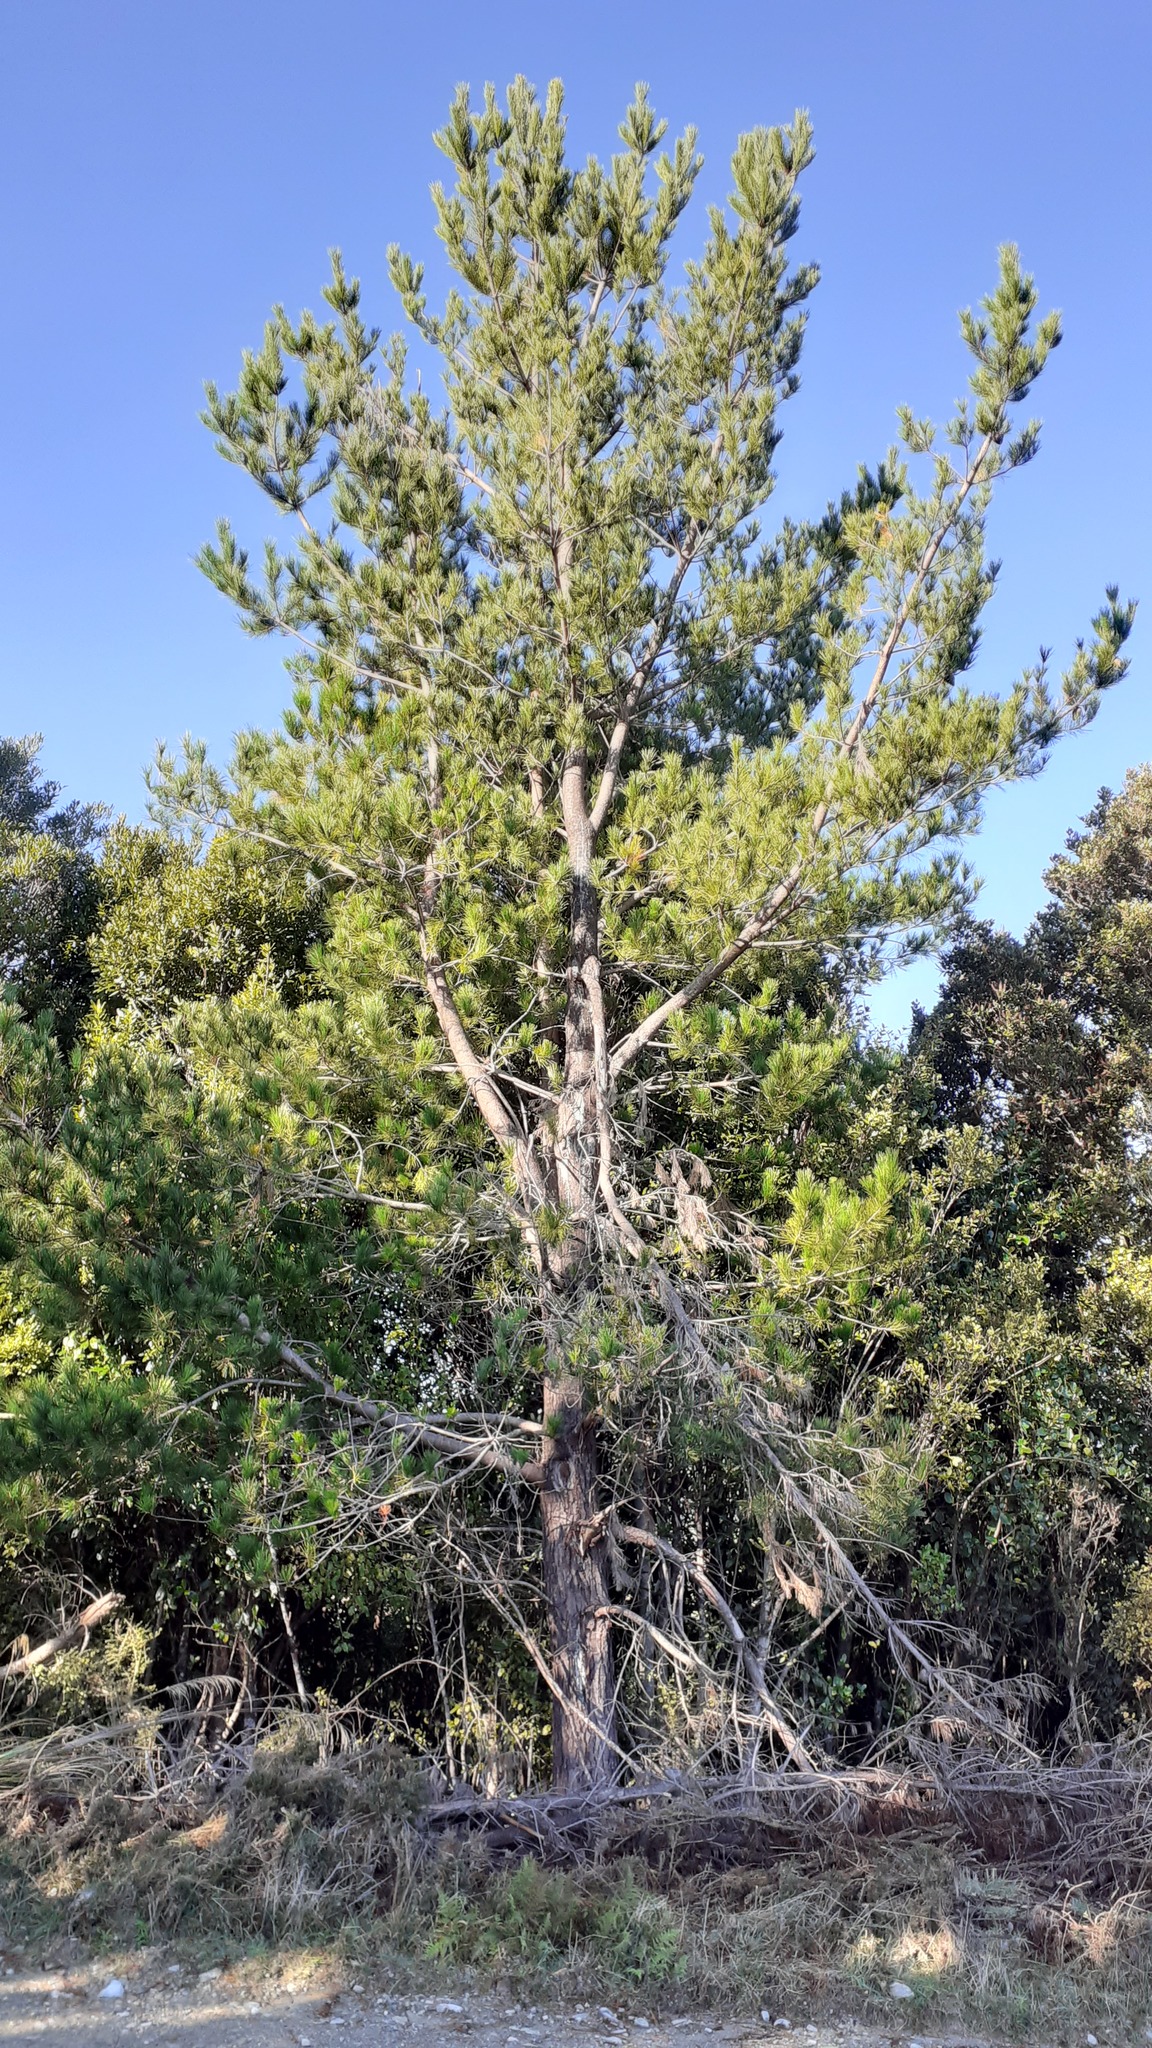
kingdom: Plantae
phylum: Tracheophyta
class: Pinopsida
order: Pinales
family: Pinaceae
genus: Pinus
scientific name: Pinus radiata
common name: Monterey pine
